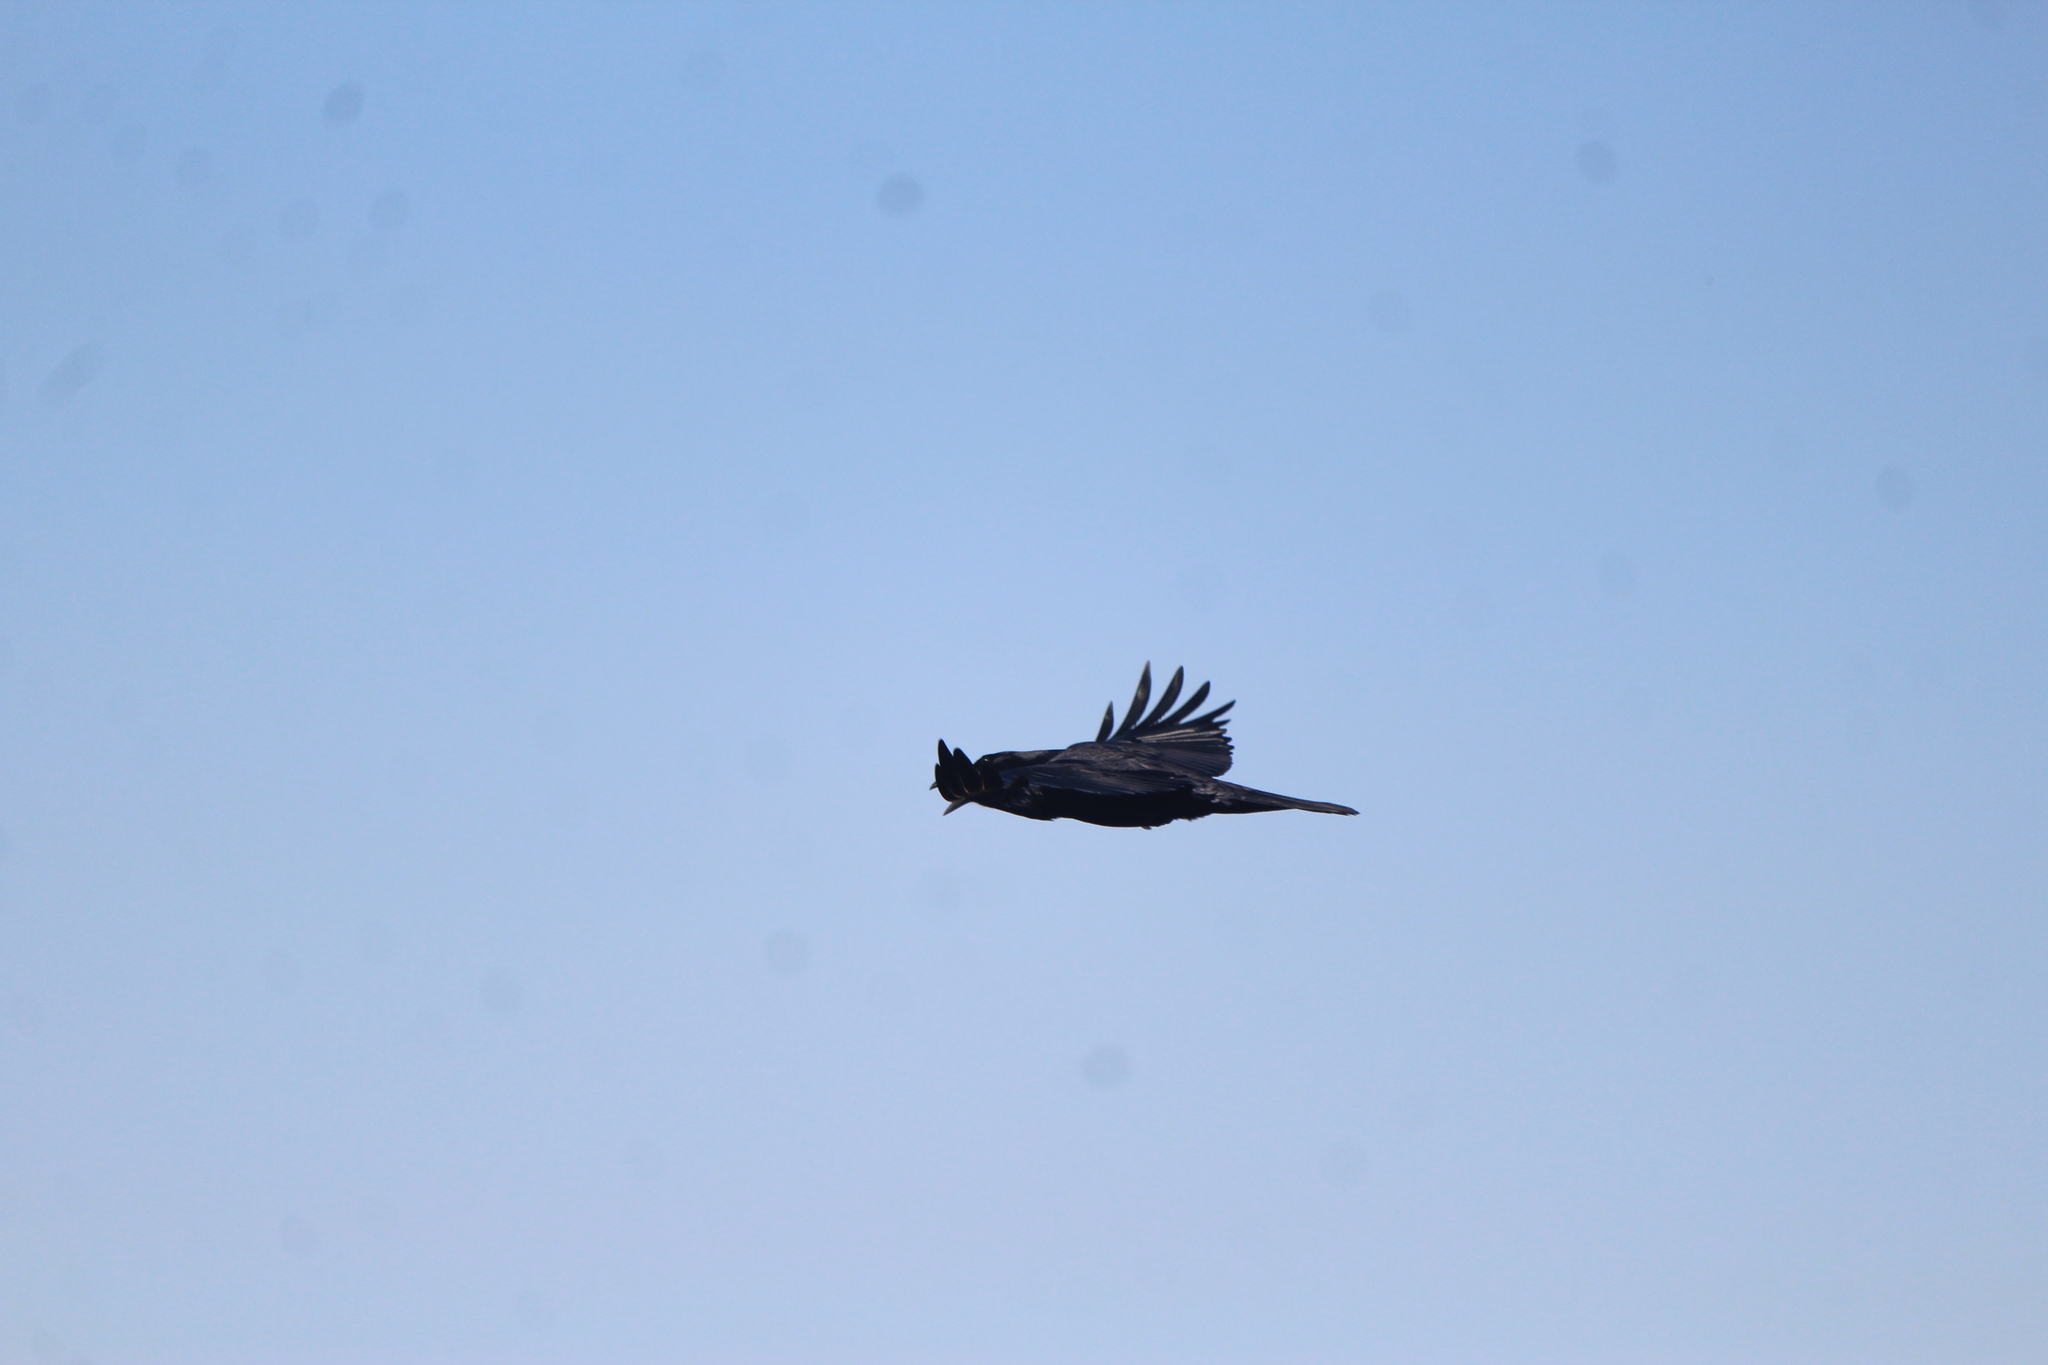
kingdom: Animalia
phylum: Chordata
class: Aves
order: Passeriformes
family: Corvidae
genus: Corvus
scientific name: Corvus corax
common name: Common raven
